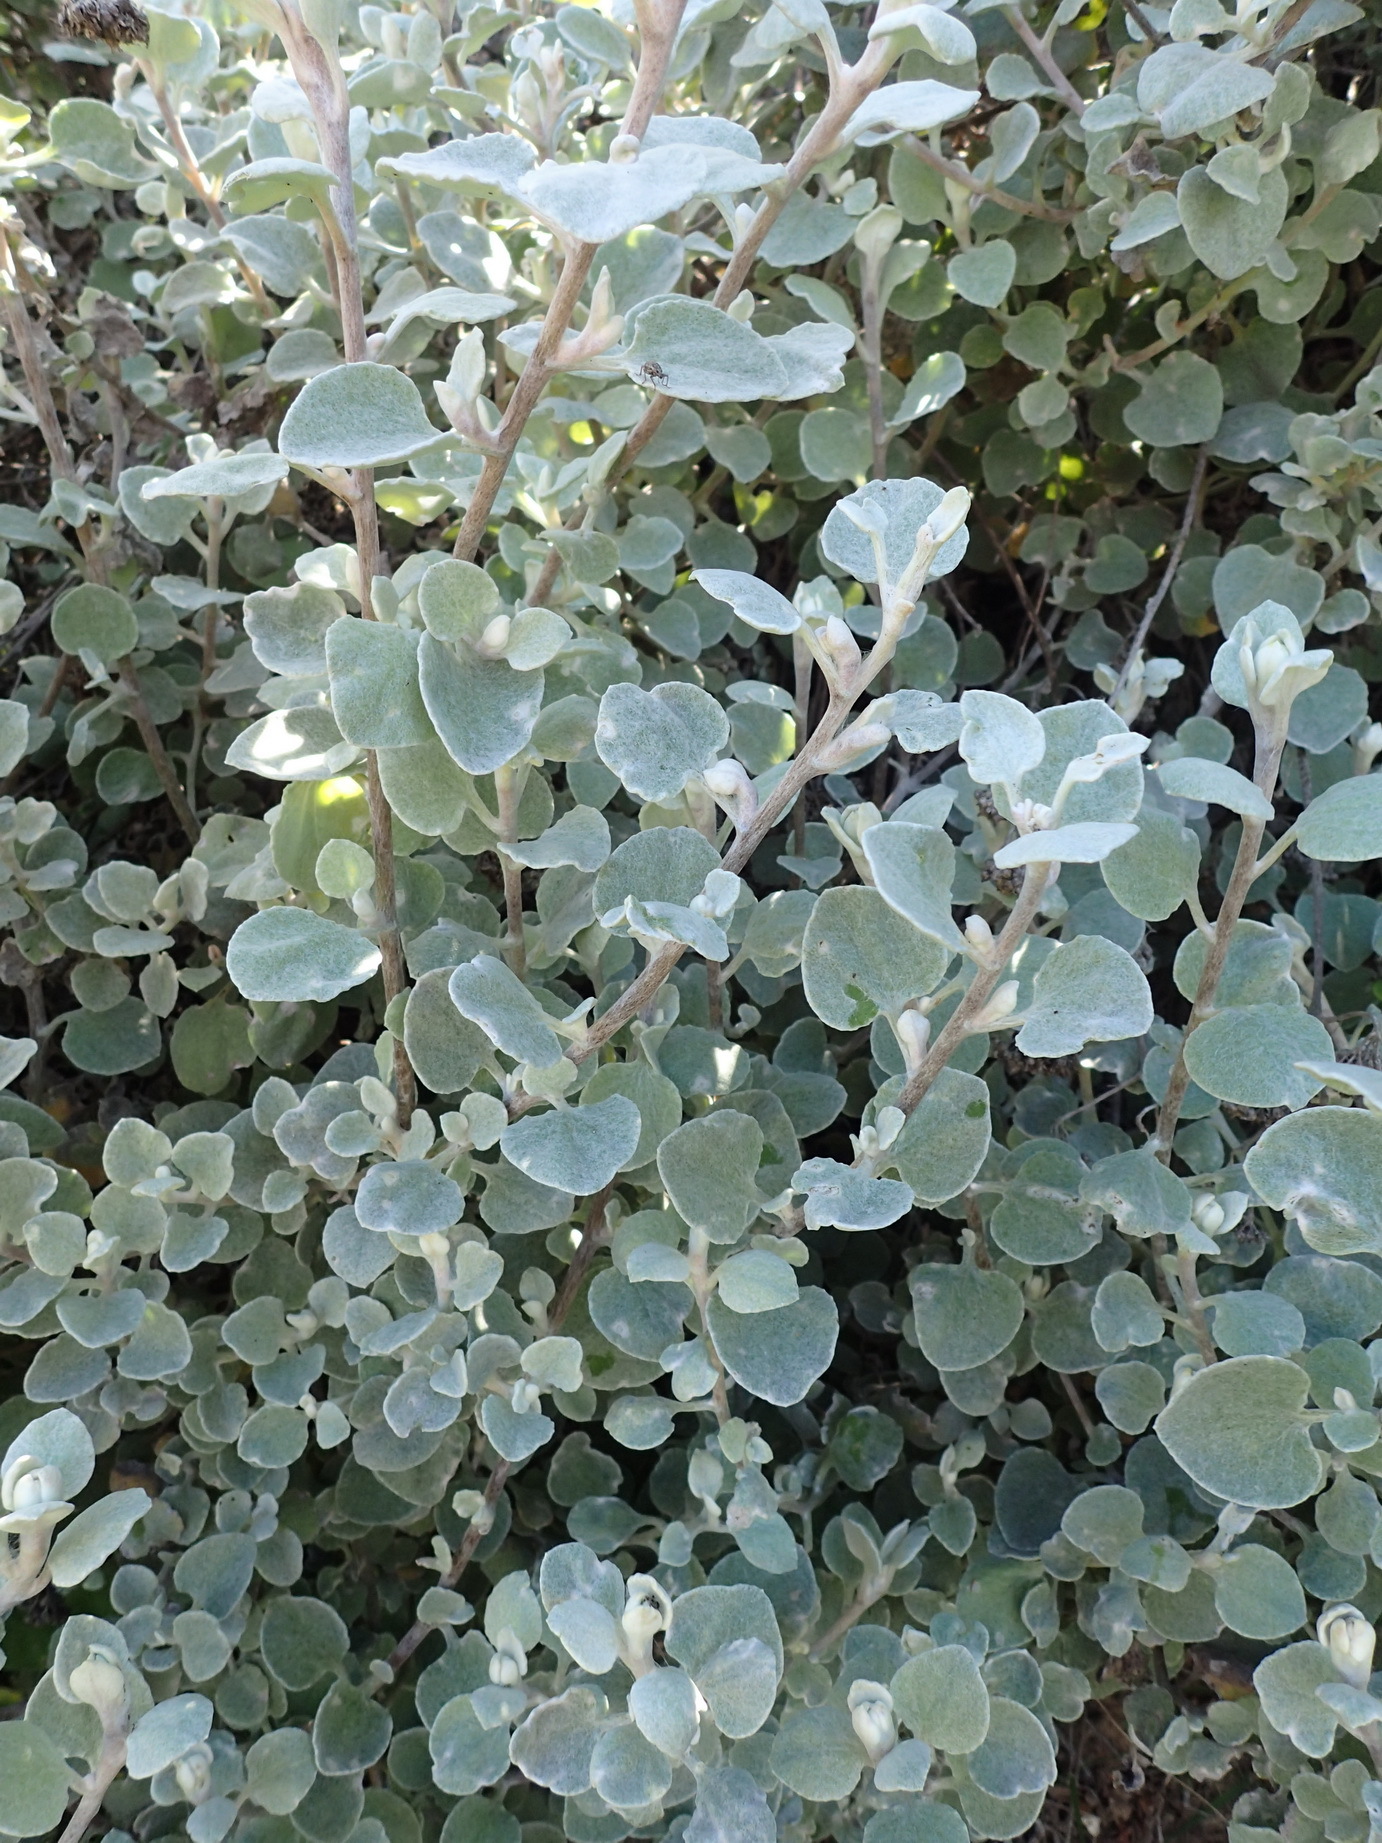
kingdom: Plantae
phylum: Tracheophyta
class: Magnoliopsida
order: Asterales
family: Asteraceae
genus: Helichrysum
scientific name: Helichrysum petiolare
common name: Licorice-plant
